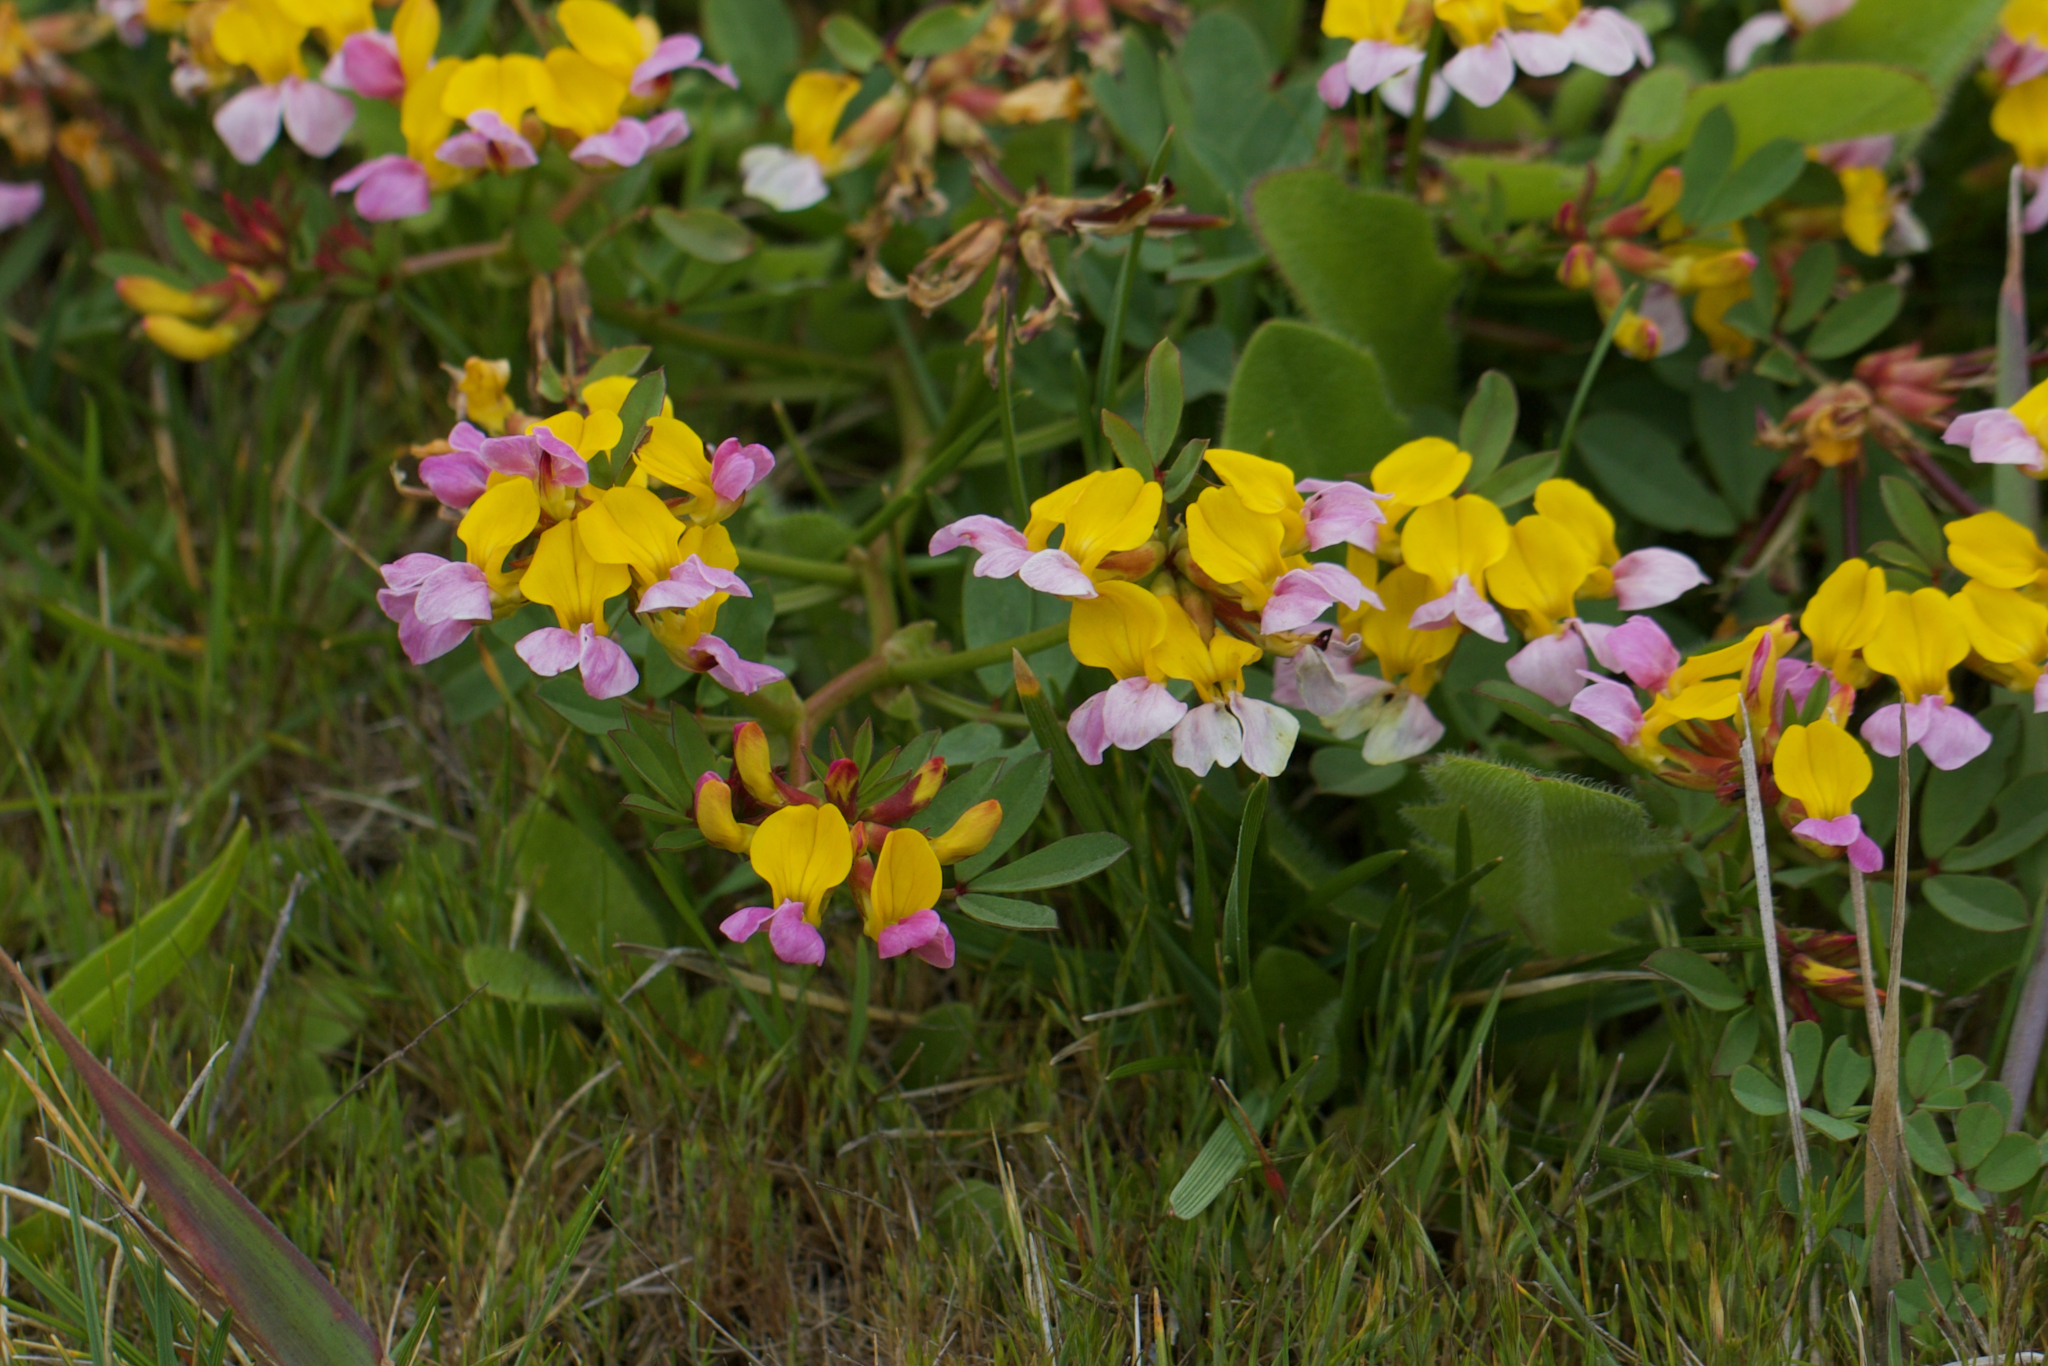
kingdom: Plantae
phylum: Tracheophyta
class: Magnoliopsida
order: Fabales
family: Fabaceae
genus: Hosackia
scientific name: Hosackia gracilis
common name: Seaside bird's-foot lotus
